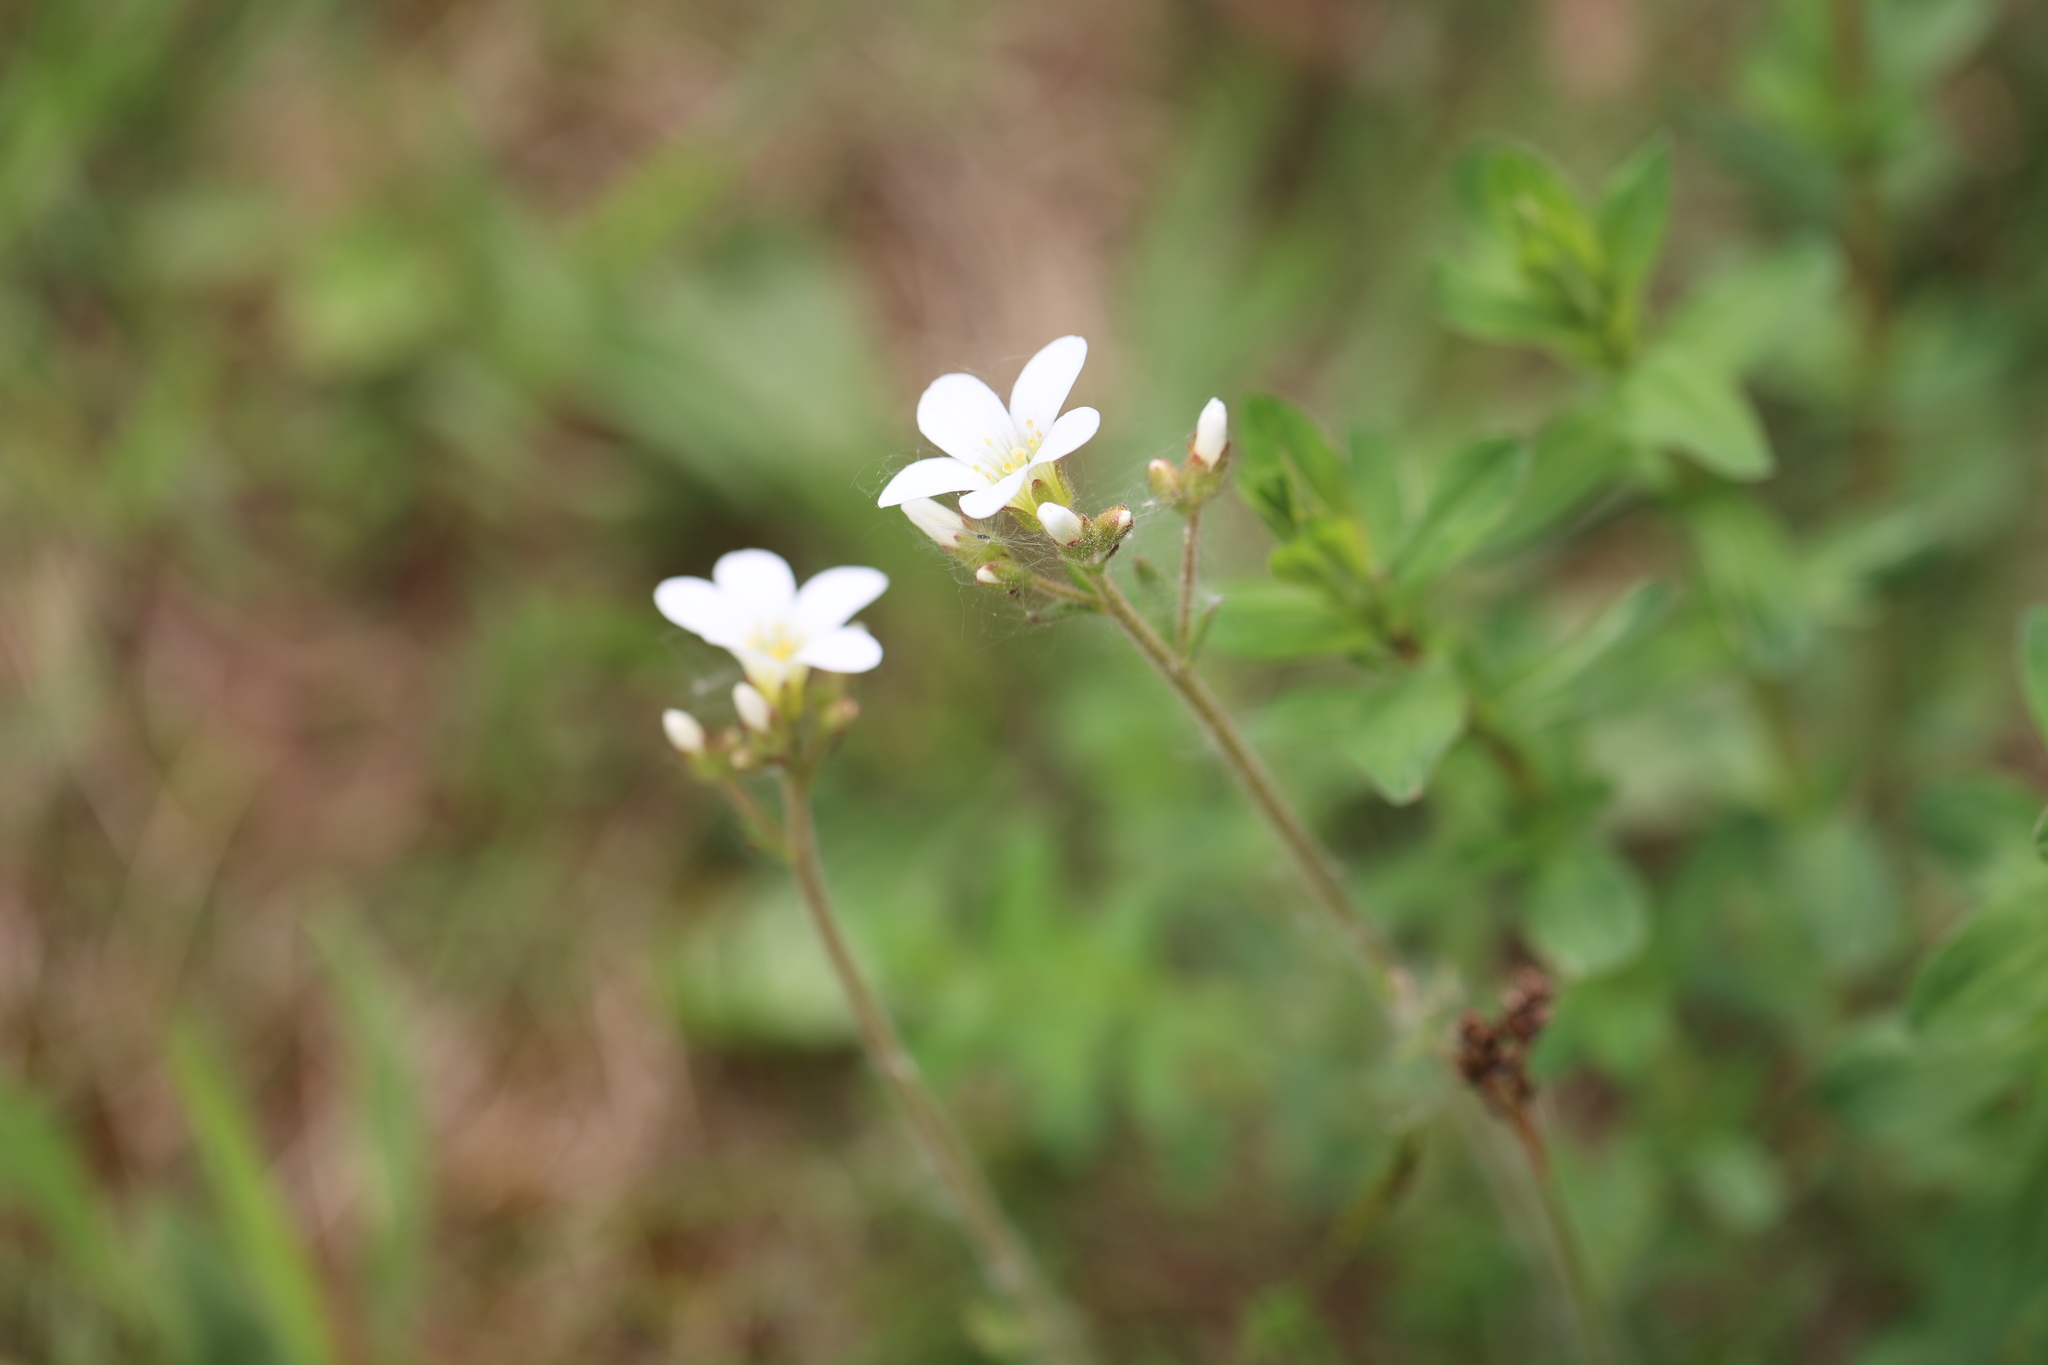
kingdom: Plantae
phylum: Tracheophyta
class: Magnoliopsida
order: Saxifragales
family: Saxifragaceae
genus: Saxifraga
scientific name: Saxifraga granulata
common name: Meadow saxifrage
